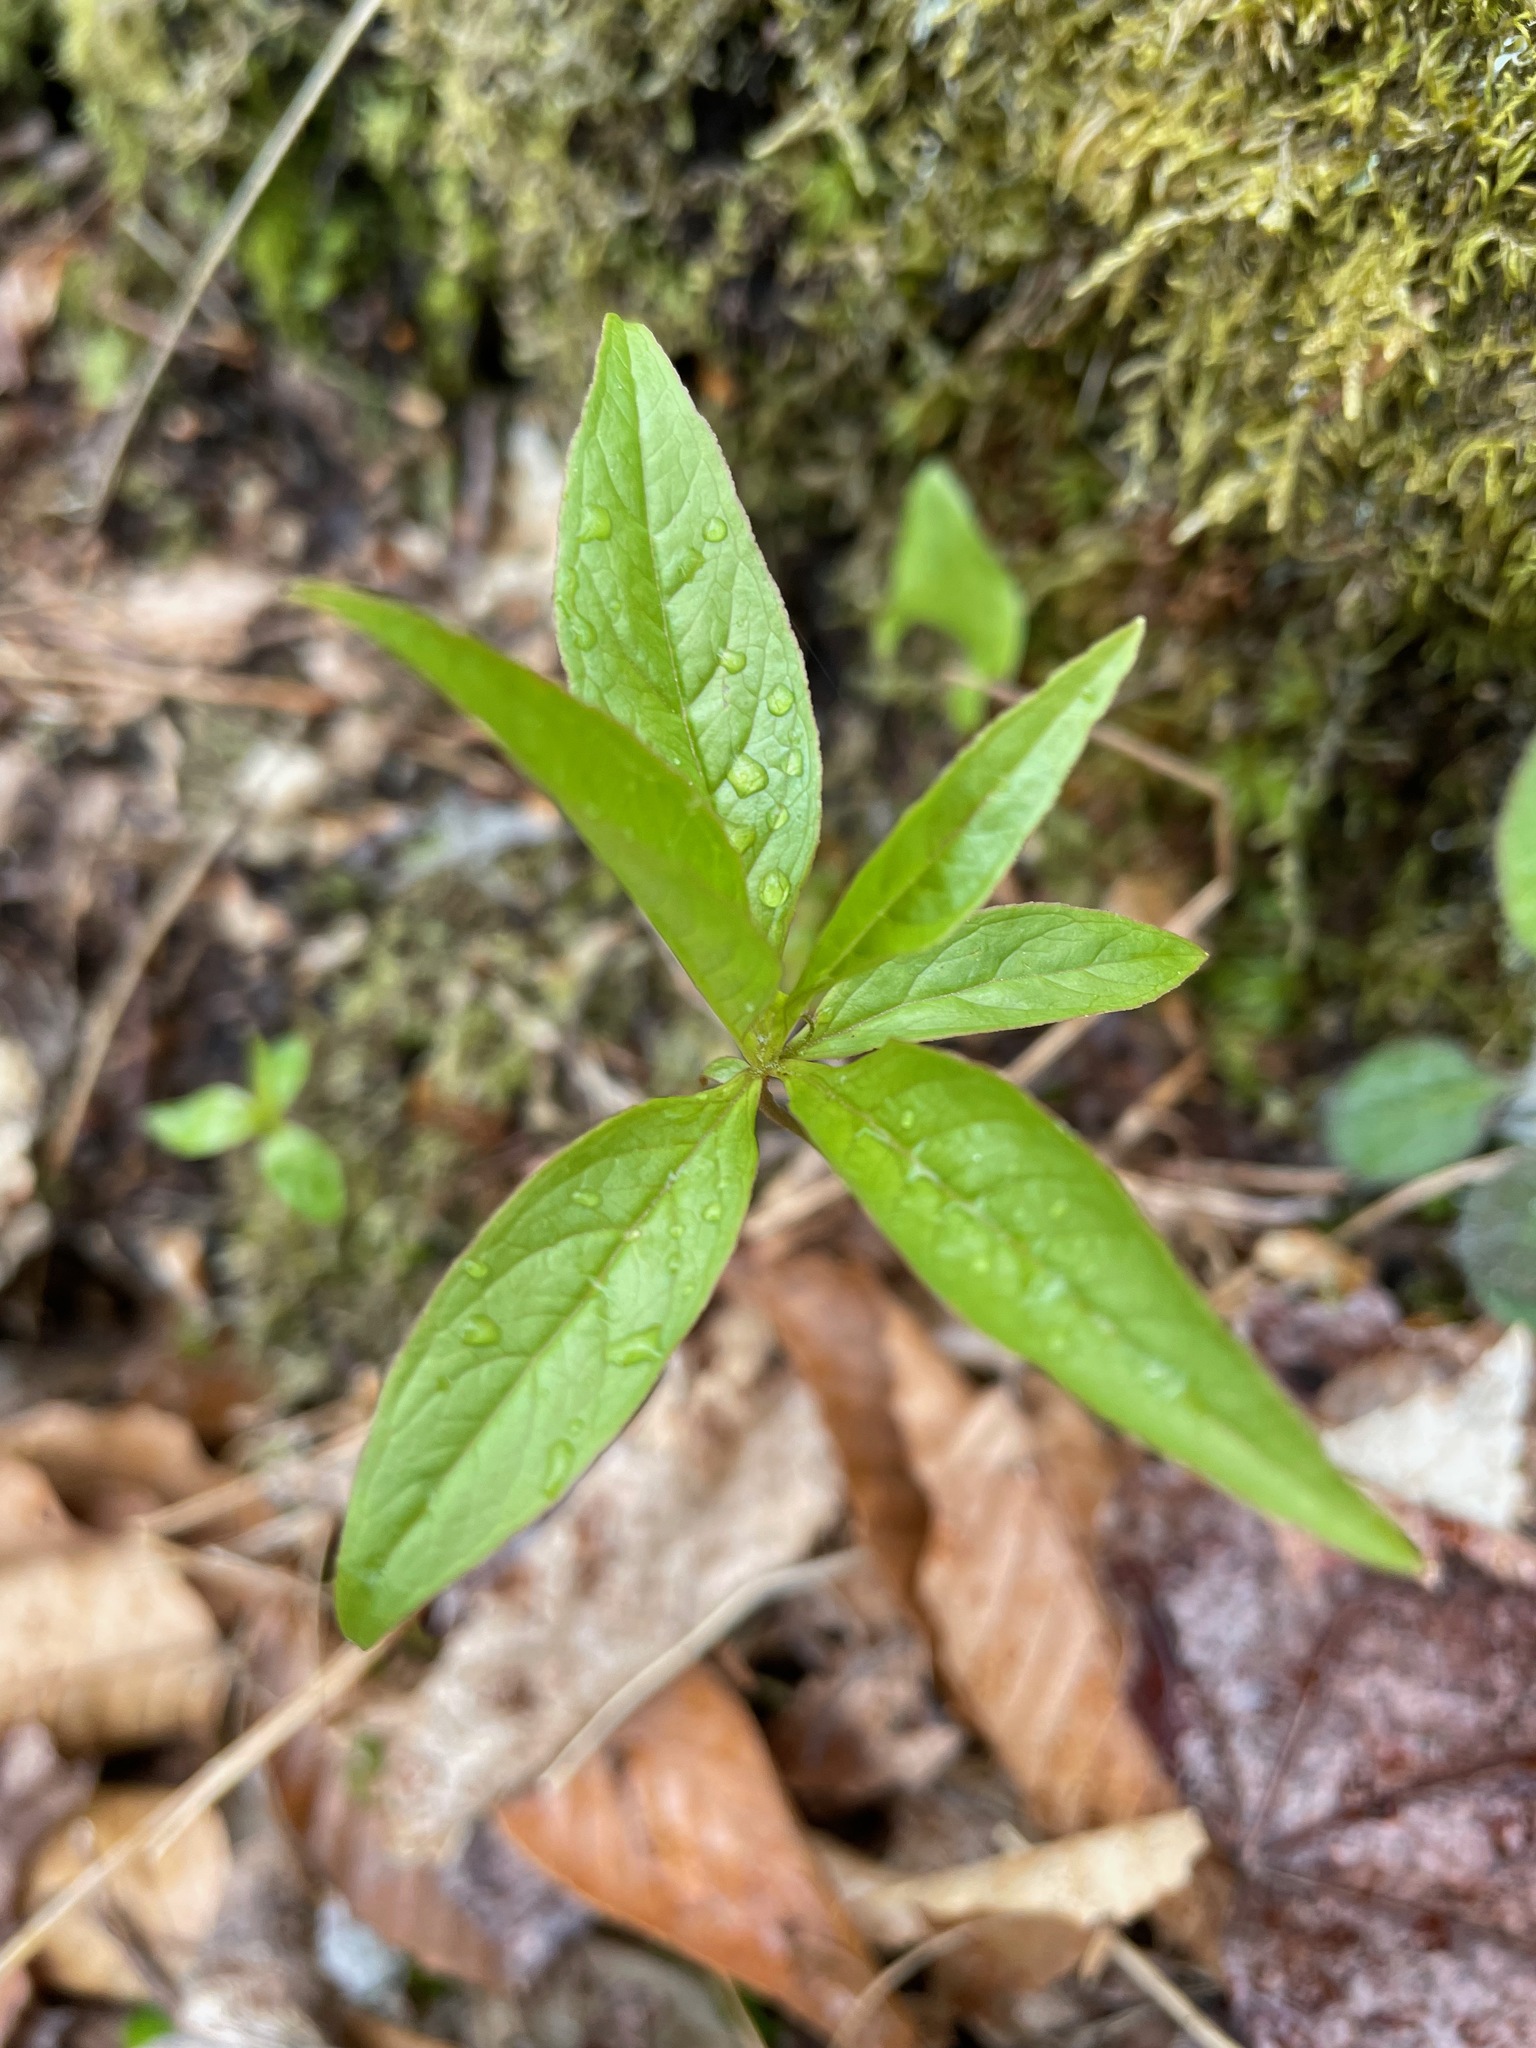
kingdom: Plantae
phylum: Tracheophyta
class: Magnoliopsida
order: Ericales
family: Primulaceae
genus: Lysimachia
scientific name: Lysimachia borealis
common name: American starflower
